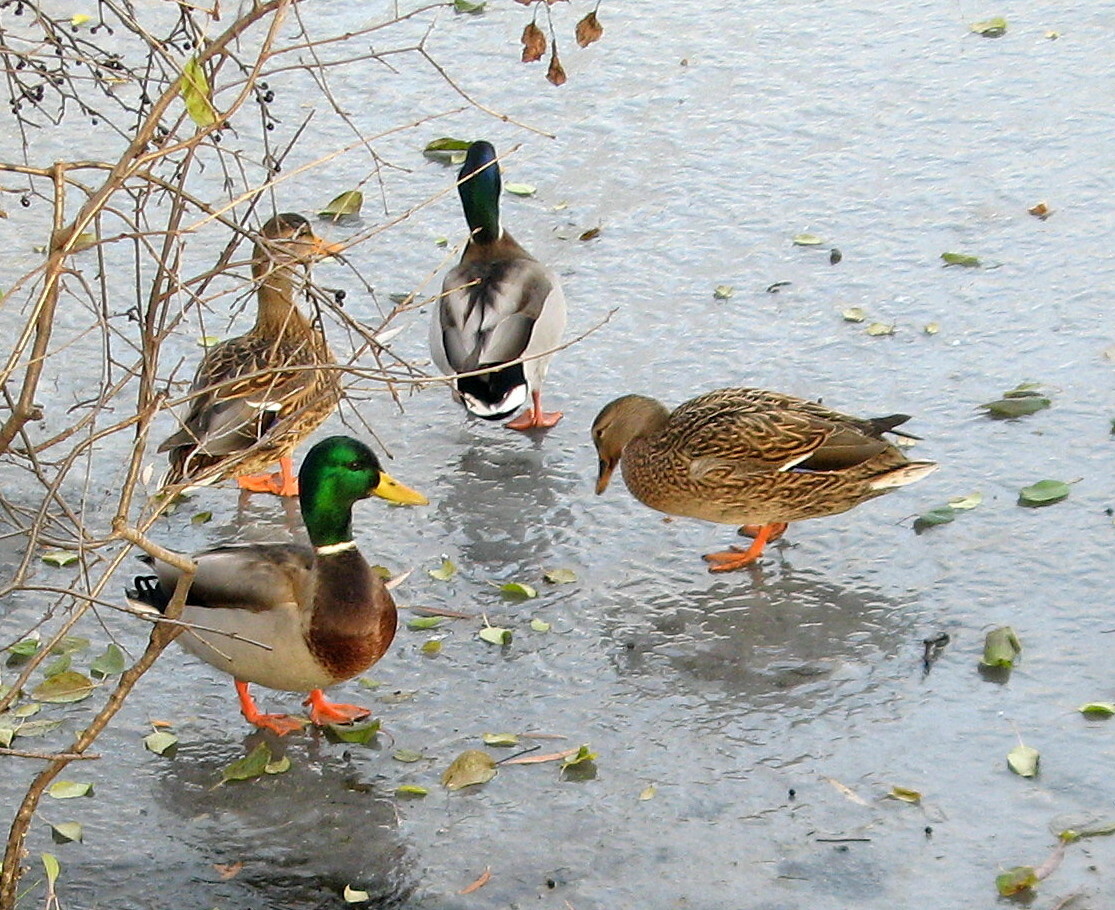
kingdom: Animalia
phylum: Chordata
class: Aves
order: Anseriformes
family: Anatidae
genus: Anas
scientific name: Anas platyrhynchos
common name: Mallard
